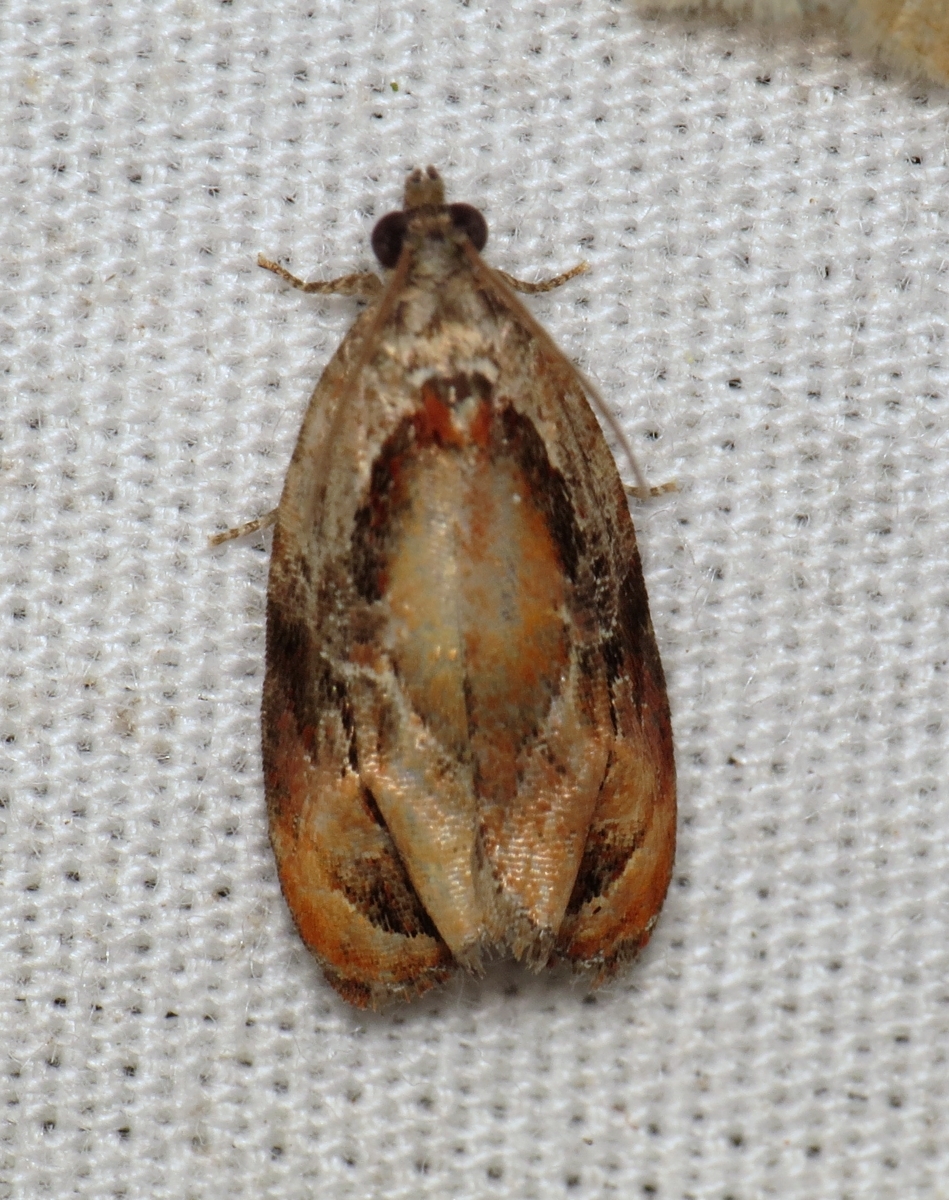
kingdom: Animalia
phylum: Arthropoda
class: Insecta
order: Lepidoptera
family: Tortricidae
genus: Zomaria
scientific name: Zomaria interruptolineana
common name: Broken-lined zomaria moth
